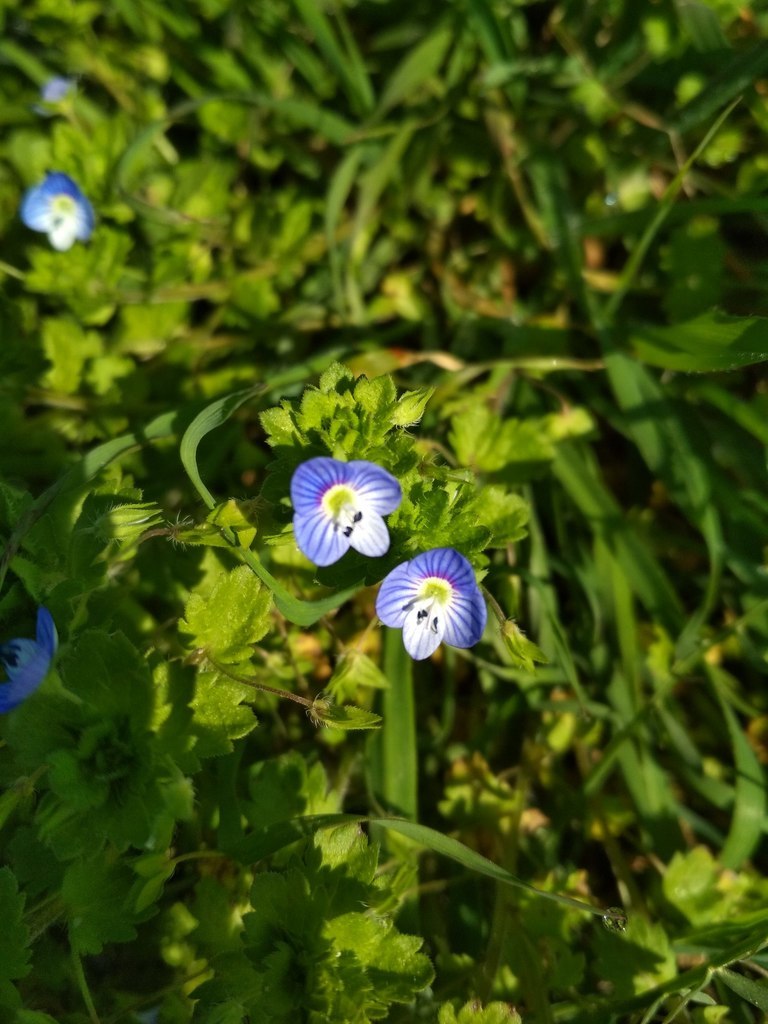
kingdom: Plantae
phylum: Tracheophyta
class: Magnoliopsida
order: Lamiales
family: Plantaginaceae
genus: Veronica
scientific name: Veronica persica
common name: Common field-speedwell
